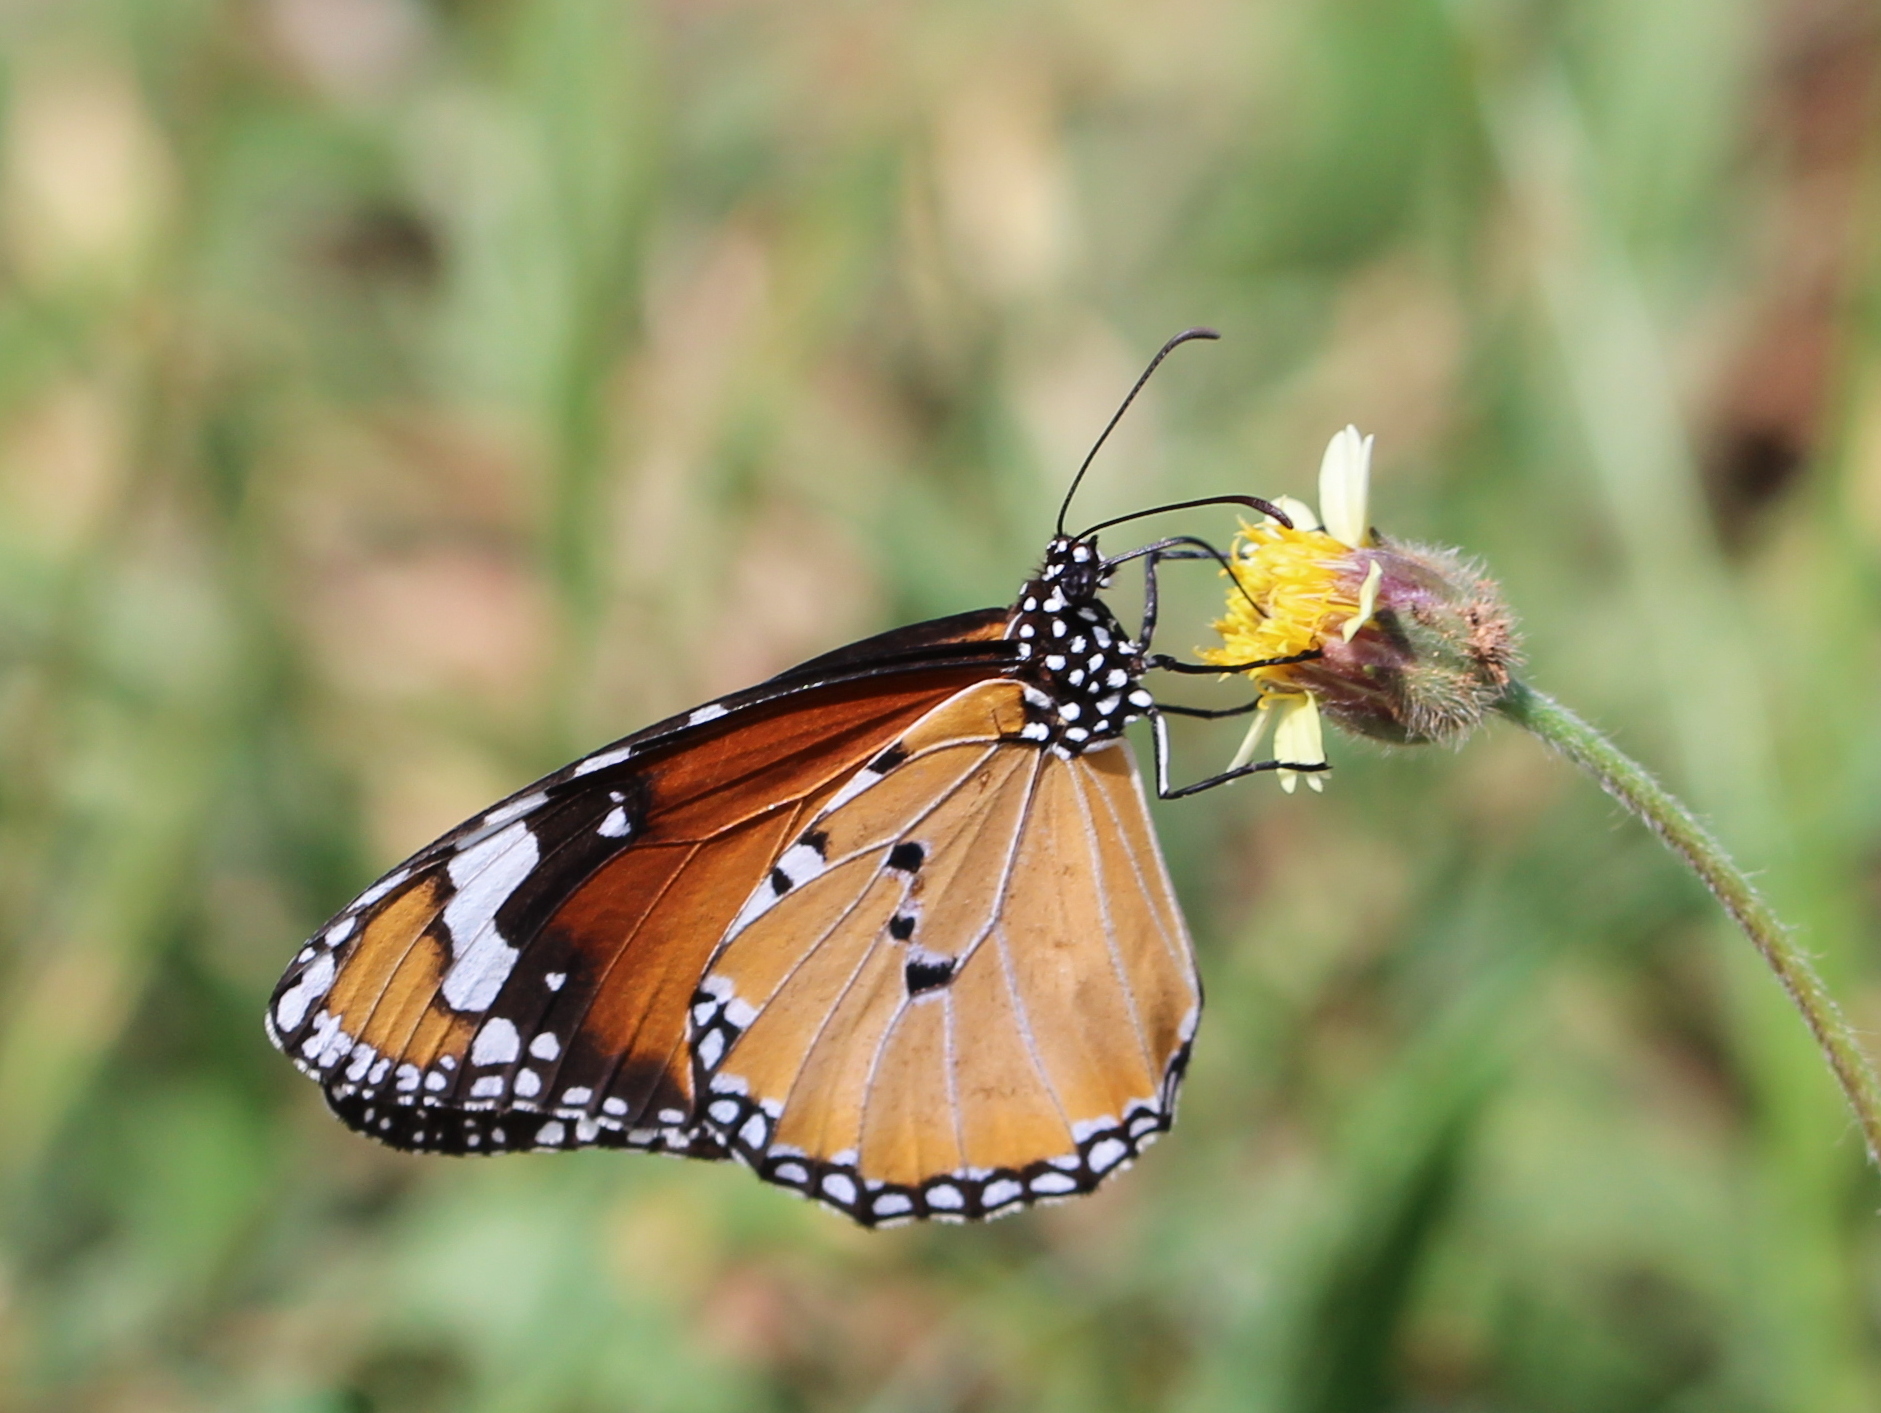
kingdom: Animalia
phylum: Arthropoda
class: Insecta
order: Lepidoptera
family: Nymphalidae
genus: Danaus
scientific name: Danaus chrysippus
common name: Plain tiger
